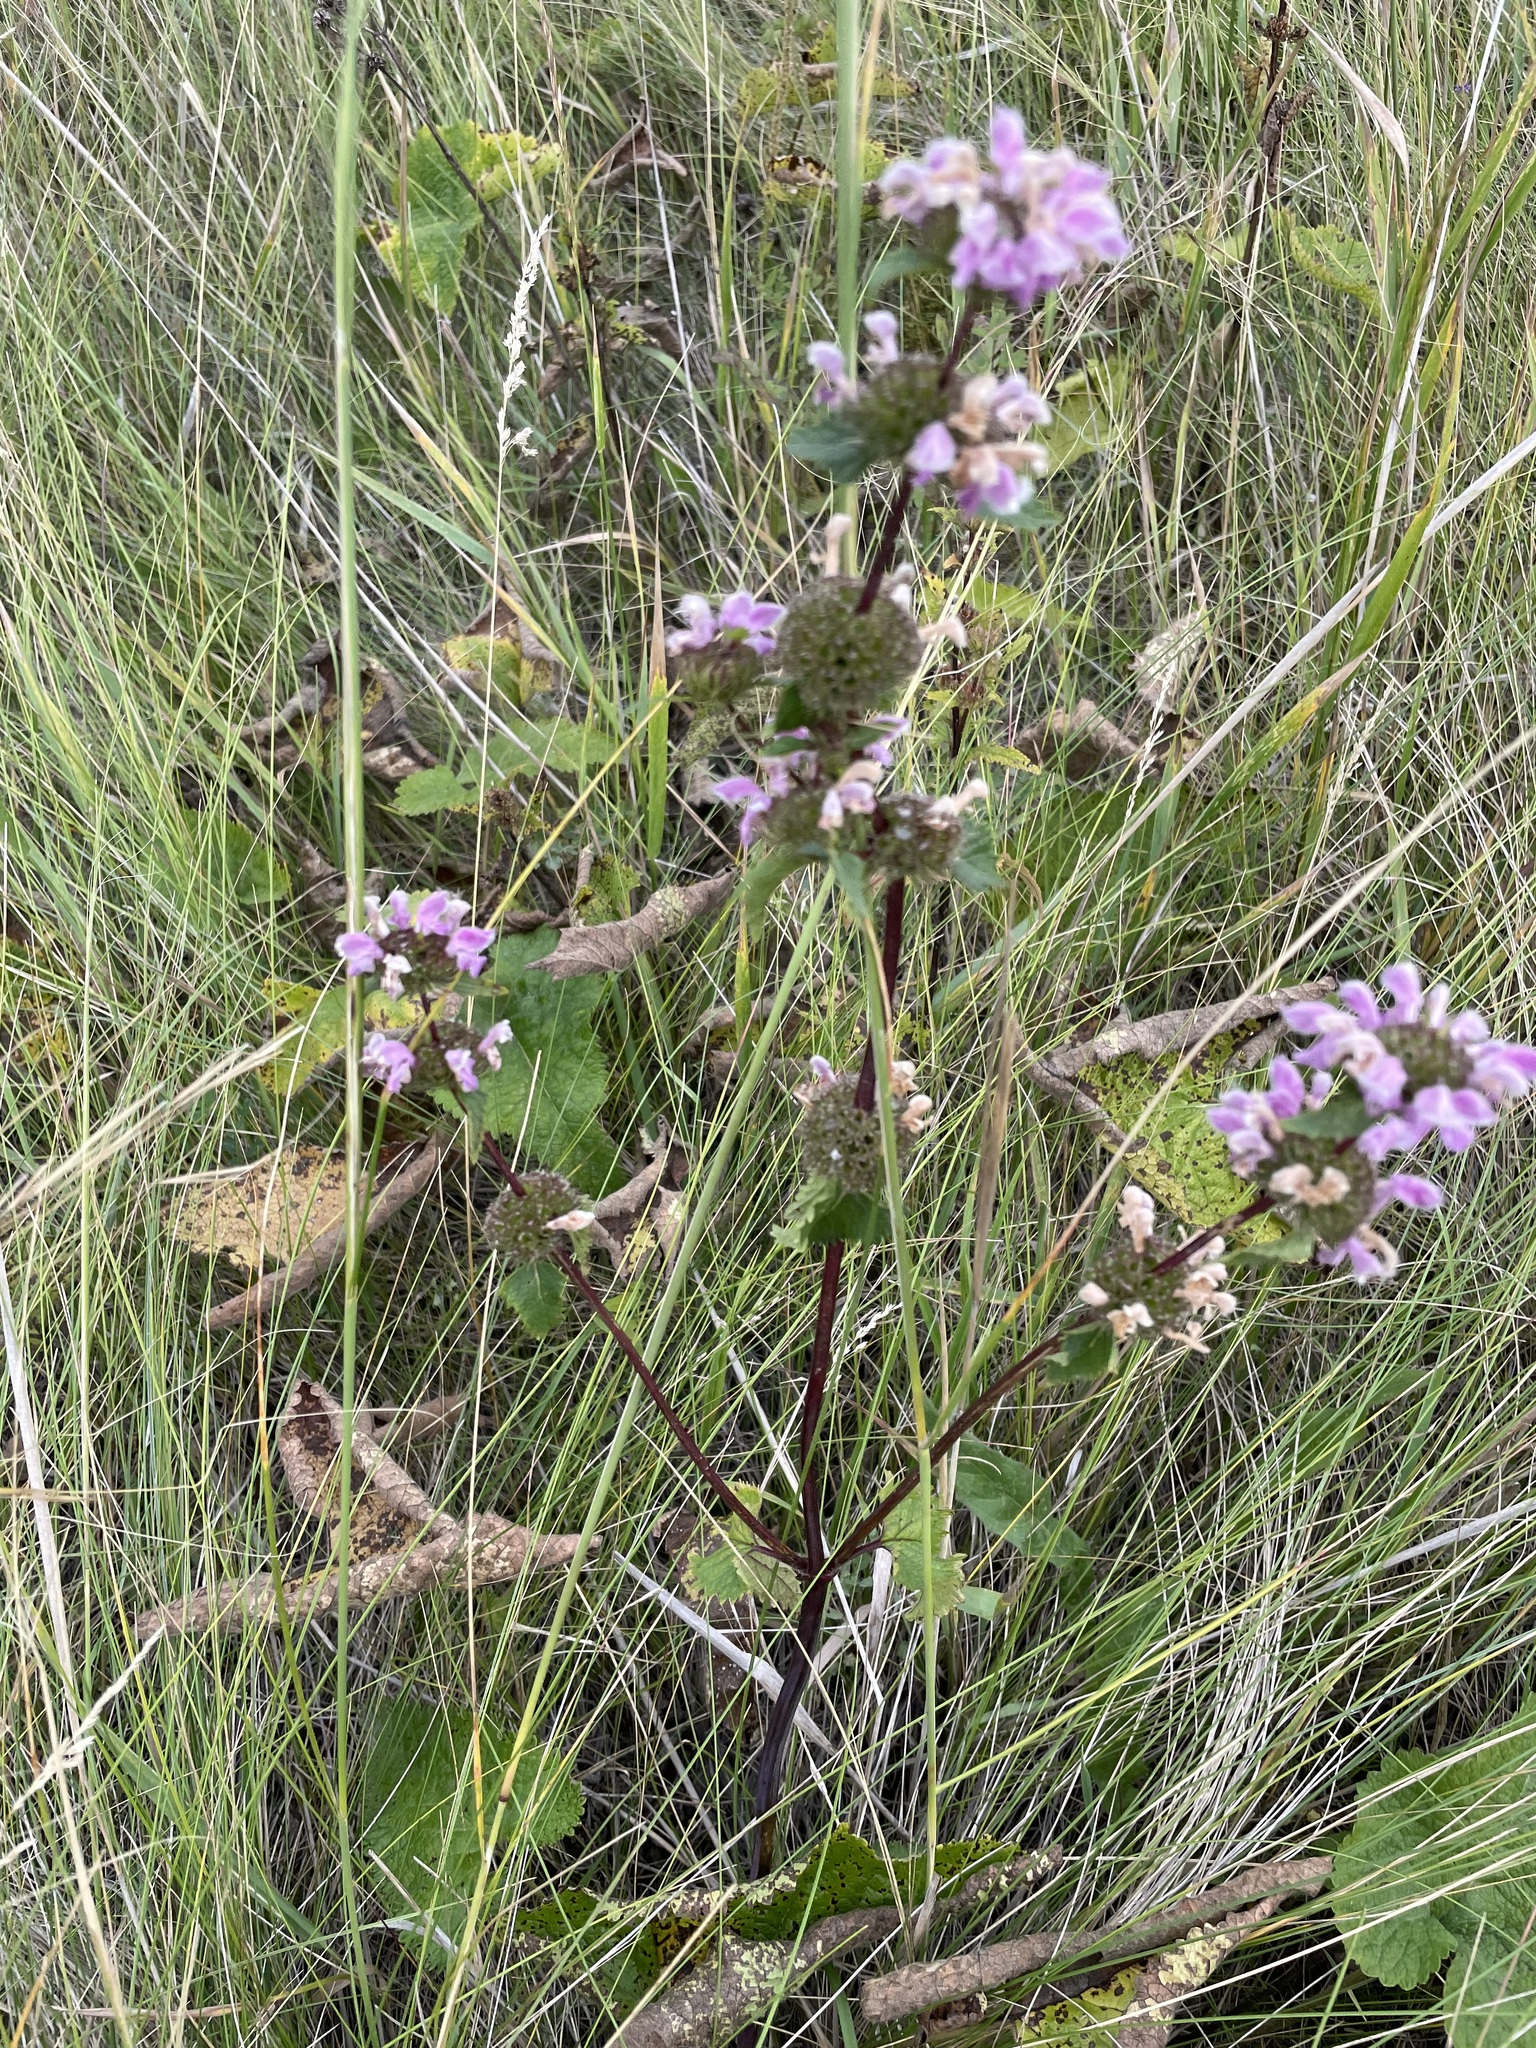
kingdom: Plantae
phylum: Tracheophyta
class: Magnoliopsida
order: Lamiales
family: Lamiaceae
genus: Phlomoides
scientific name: Phlomoides tuberosa
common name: Tuberous jerusalem sage
